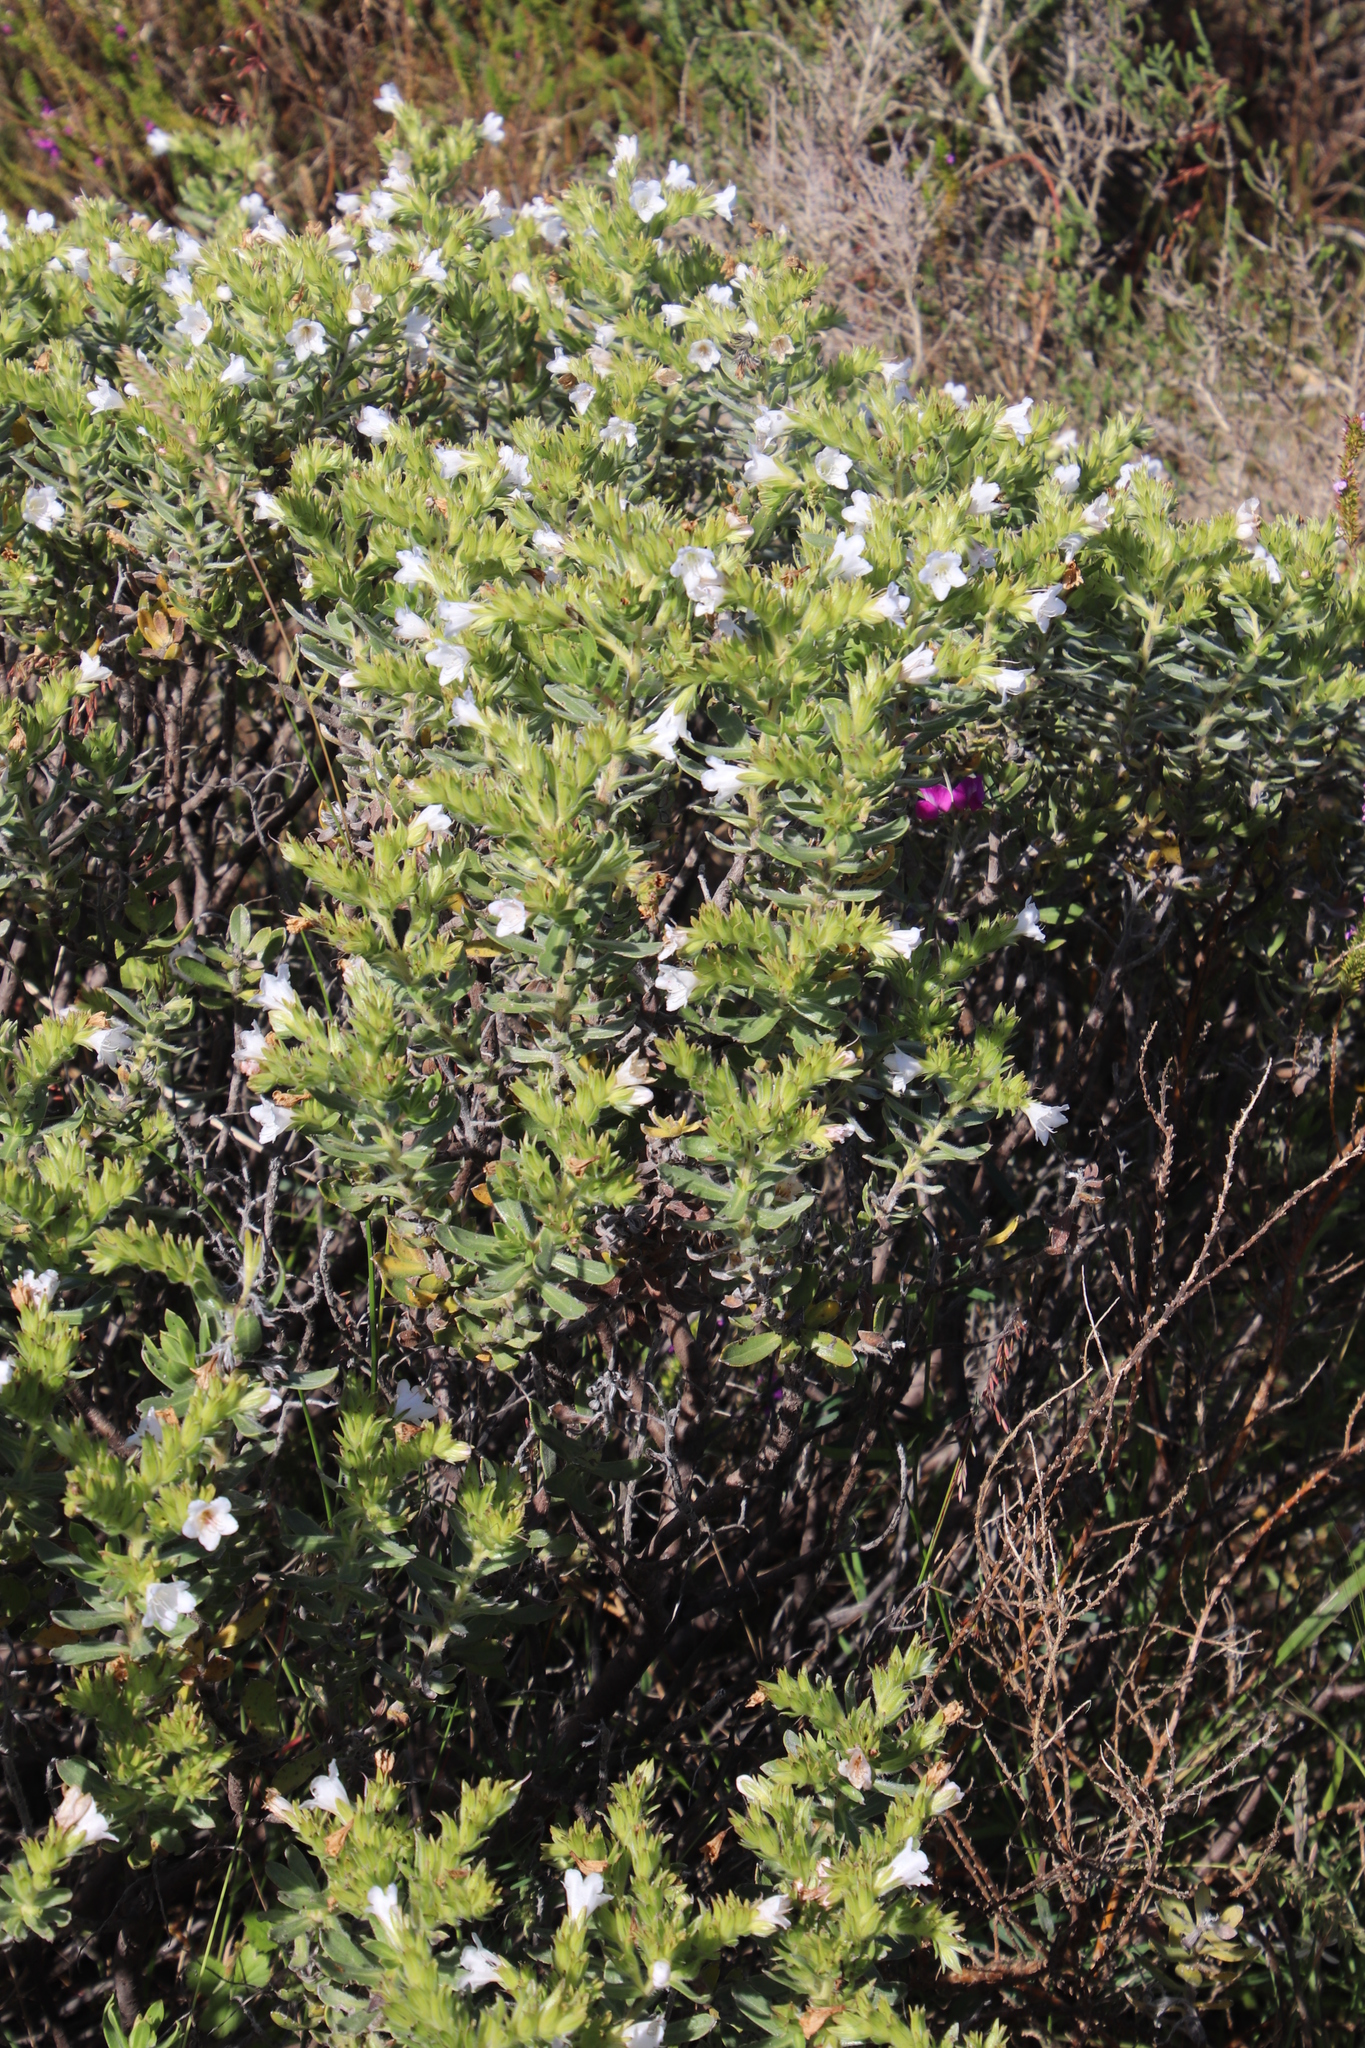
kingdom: Plantae
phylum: Tracheophyta
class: Magnoliopsida
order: Boraginales
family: Boraginaceae
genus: Lobostemon
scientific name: Lobostemon fruticosus
